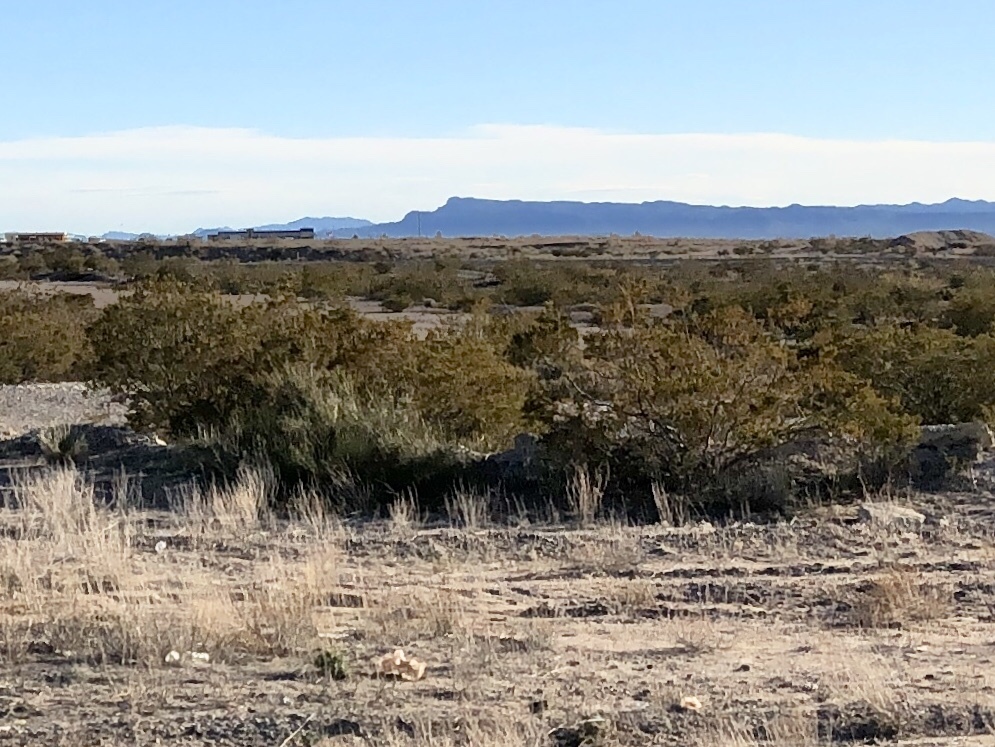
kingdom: Plantae
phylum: Tracheophyta
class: Magnoliopsida
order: Zygophyllales
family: Zygophyllaceae
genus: Larrea
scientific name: Larrea tridentata
